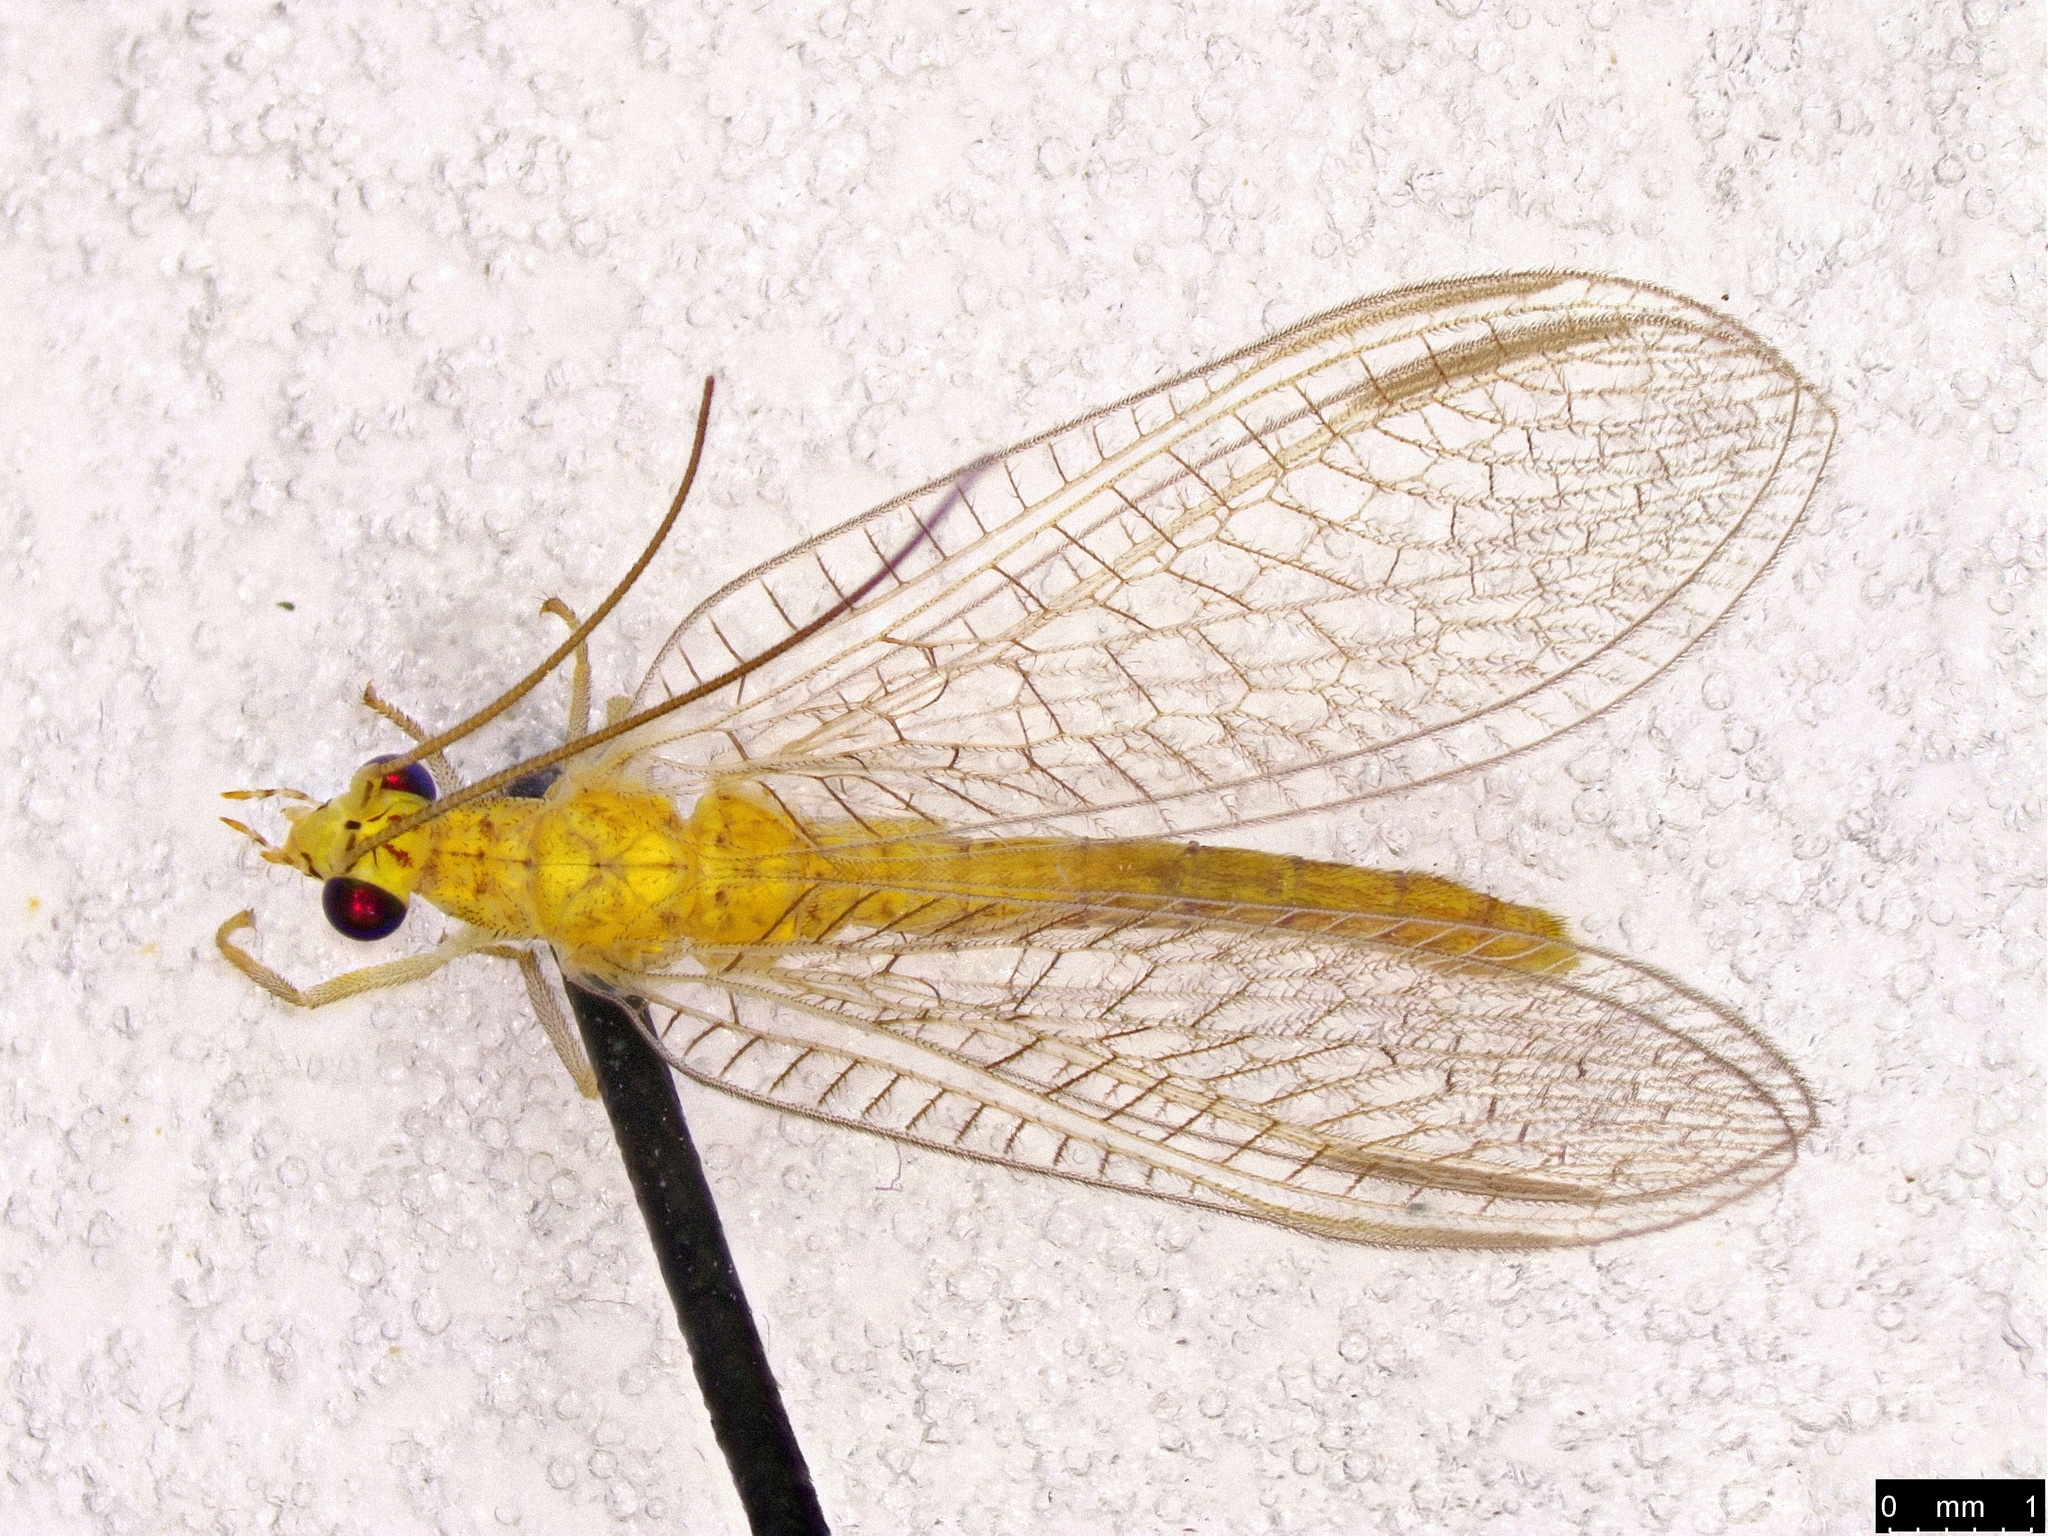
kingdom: Animalia
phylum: Arthropoda
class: Insecta
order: Neuroptera
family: Chrysopidae
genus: Mallada
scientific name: Mallada signatus
